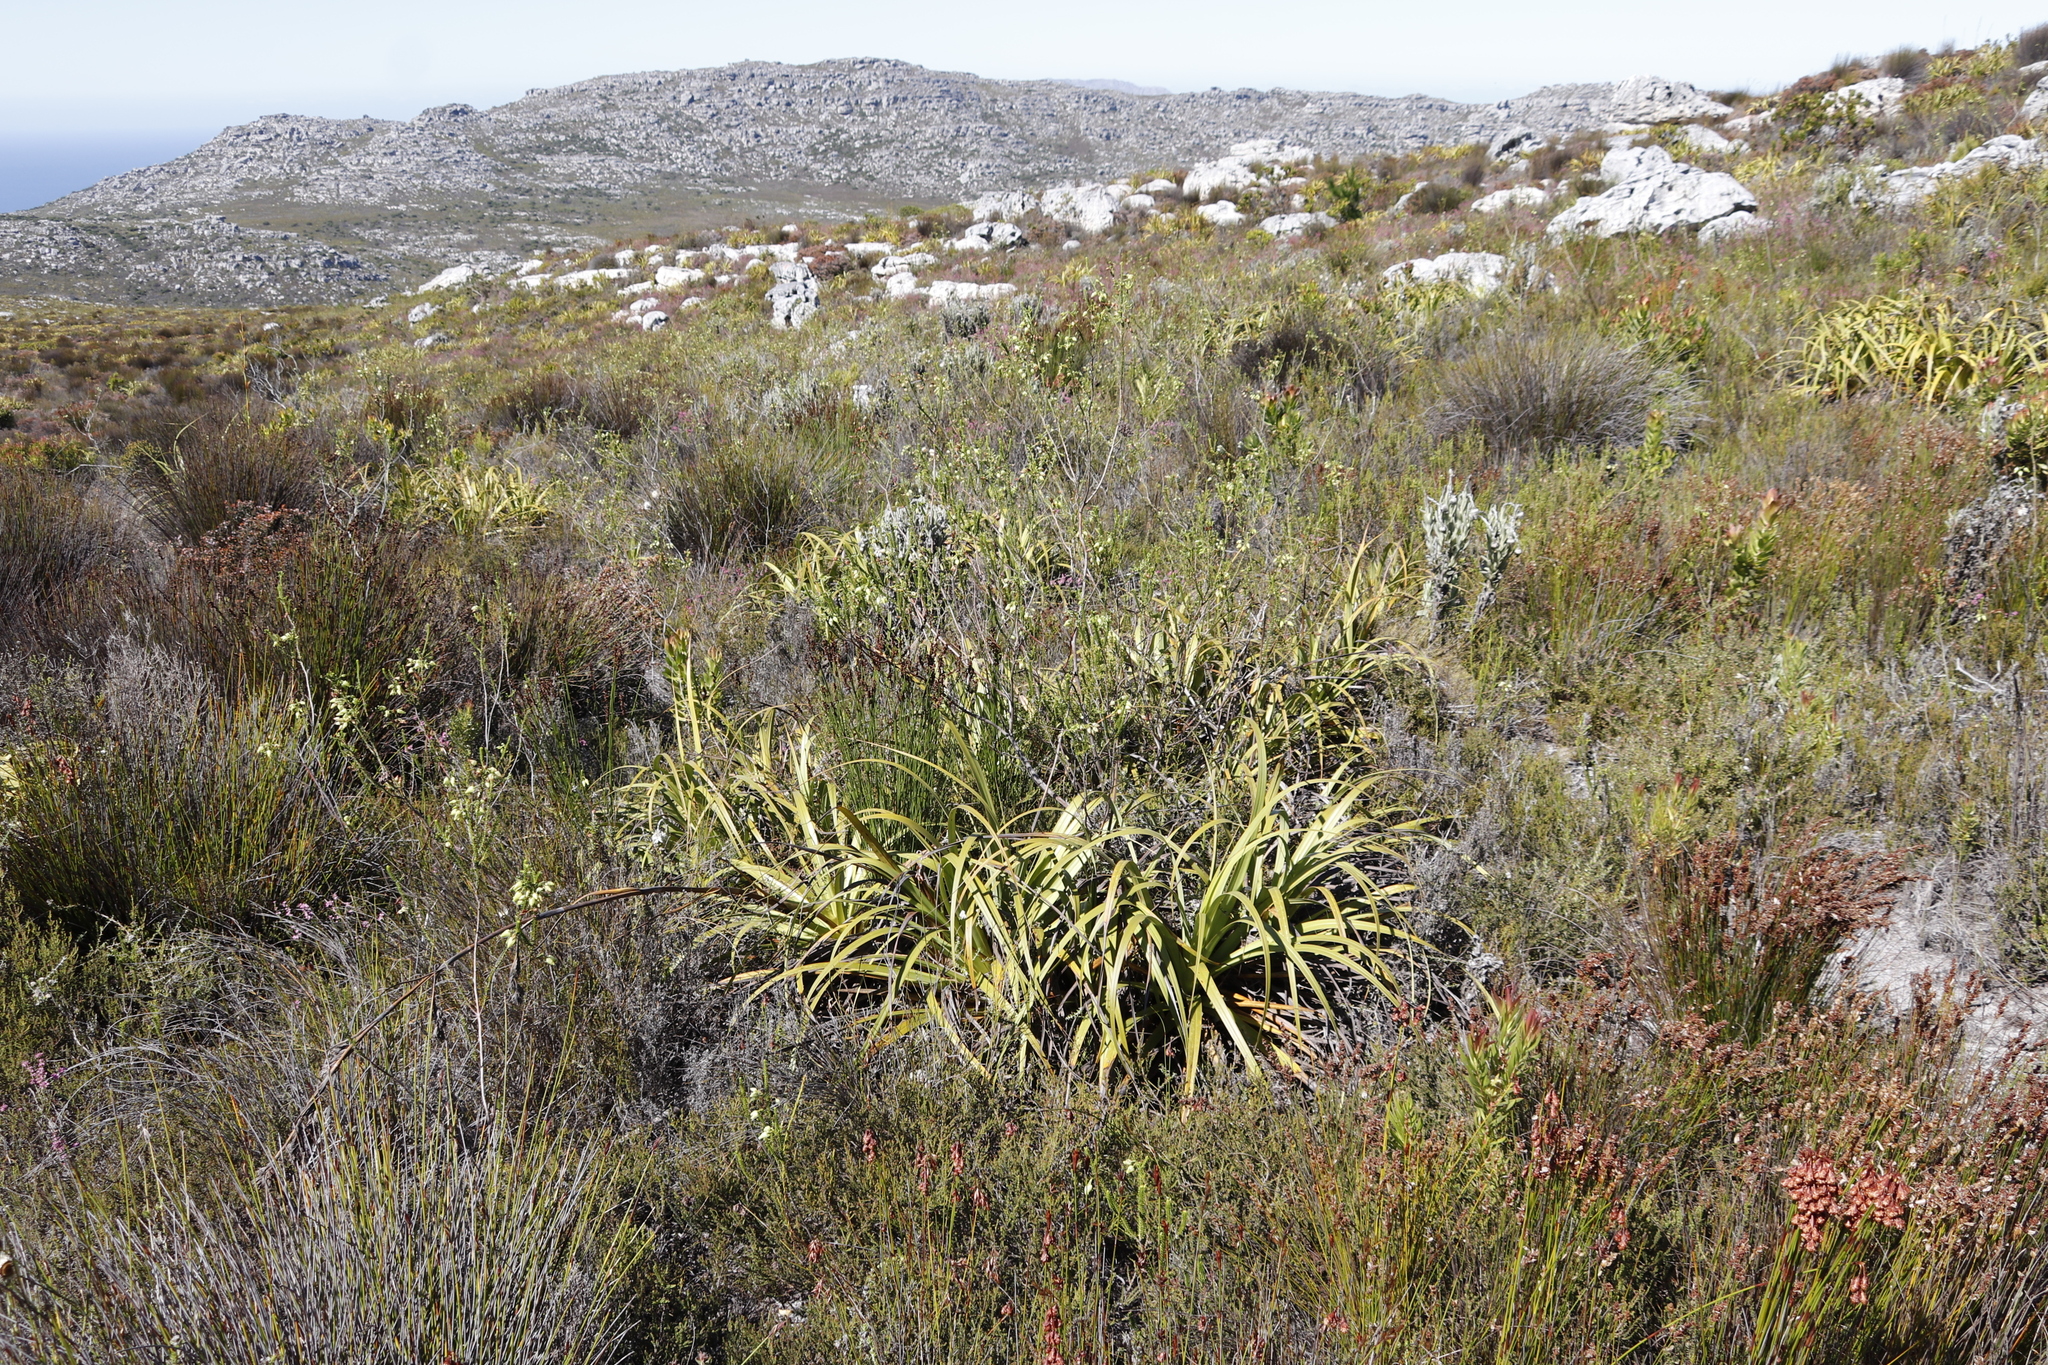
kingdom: Plantae
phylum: Tracheophyta
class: Magnoliopsida
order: Ericales
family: Ericaceae
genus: Erica
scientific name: Erica urna-viridis
